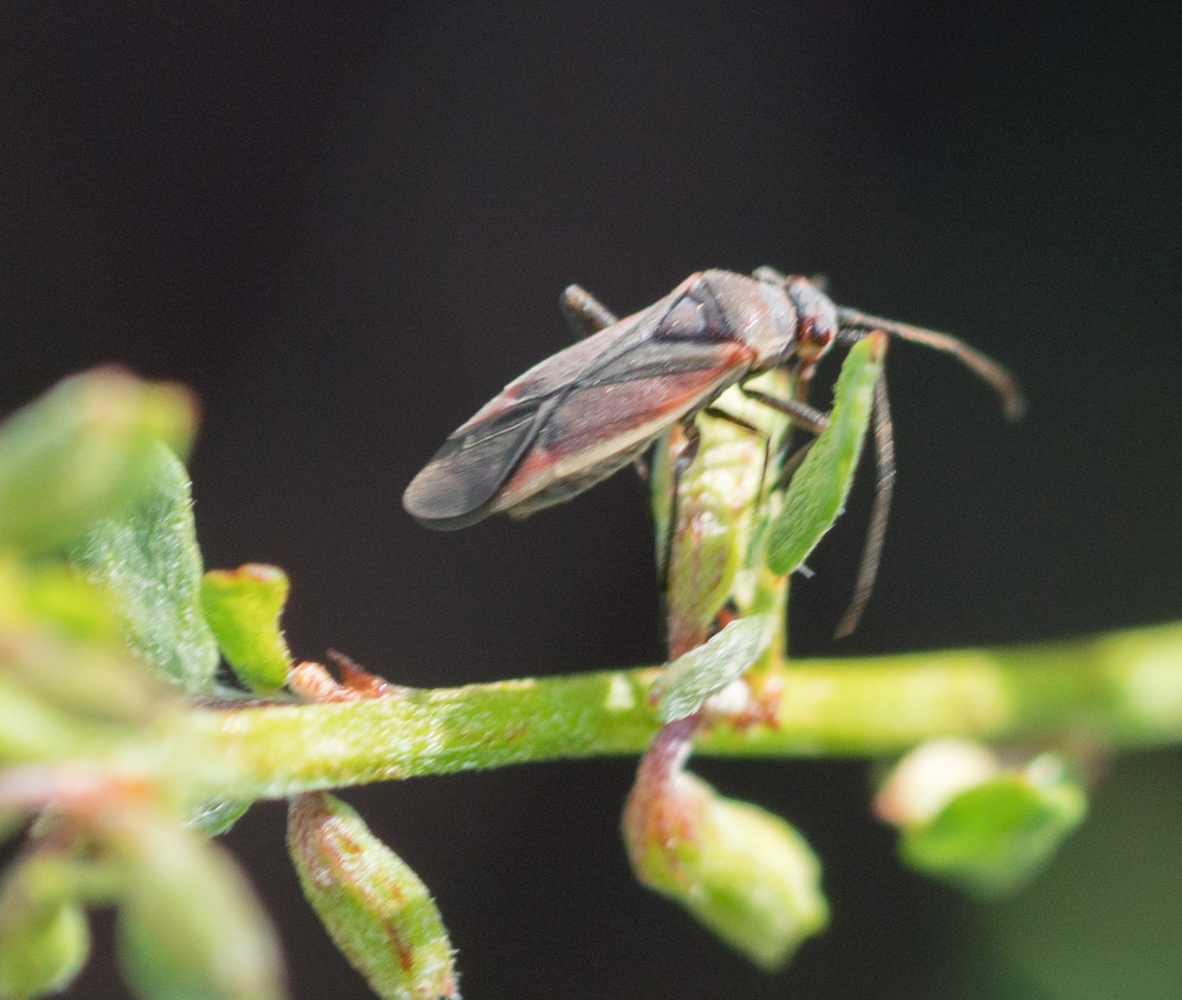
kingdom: Animalia
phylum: Arthropoda
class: Insecta
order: Hemiptera
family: Miridae
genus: Lopidea
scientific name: Lopidea marginata
